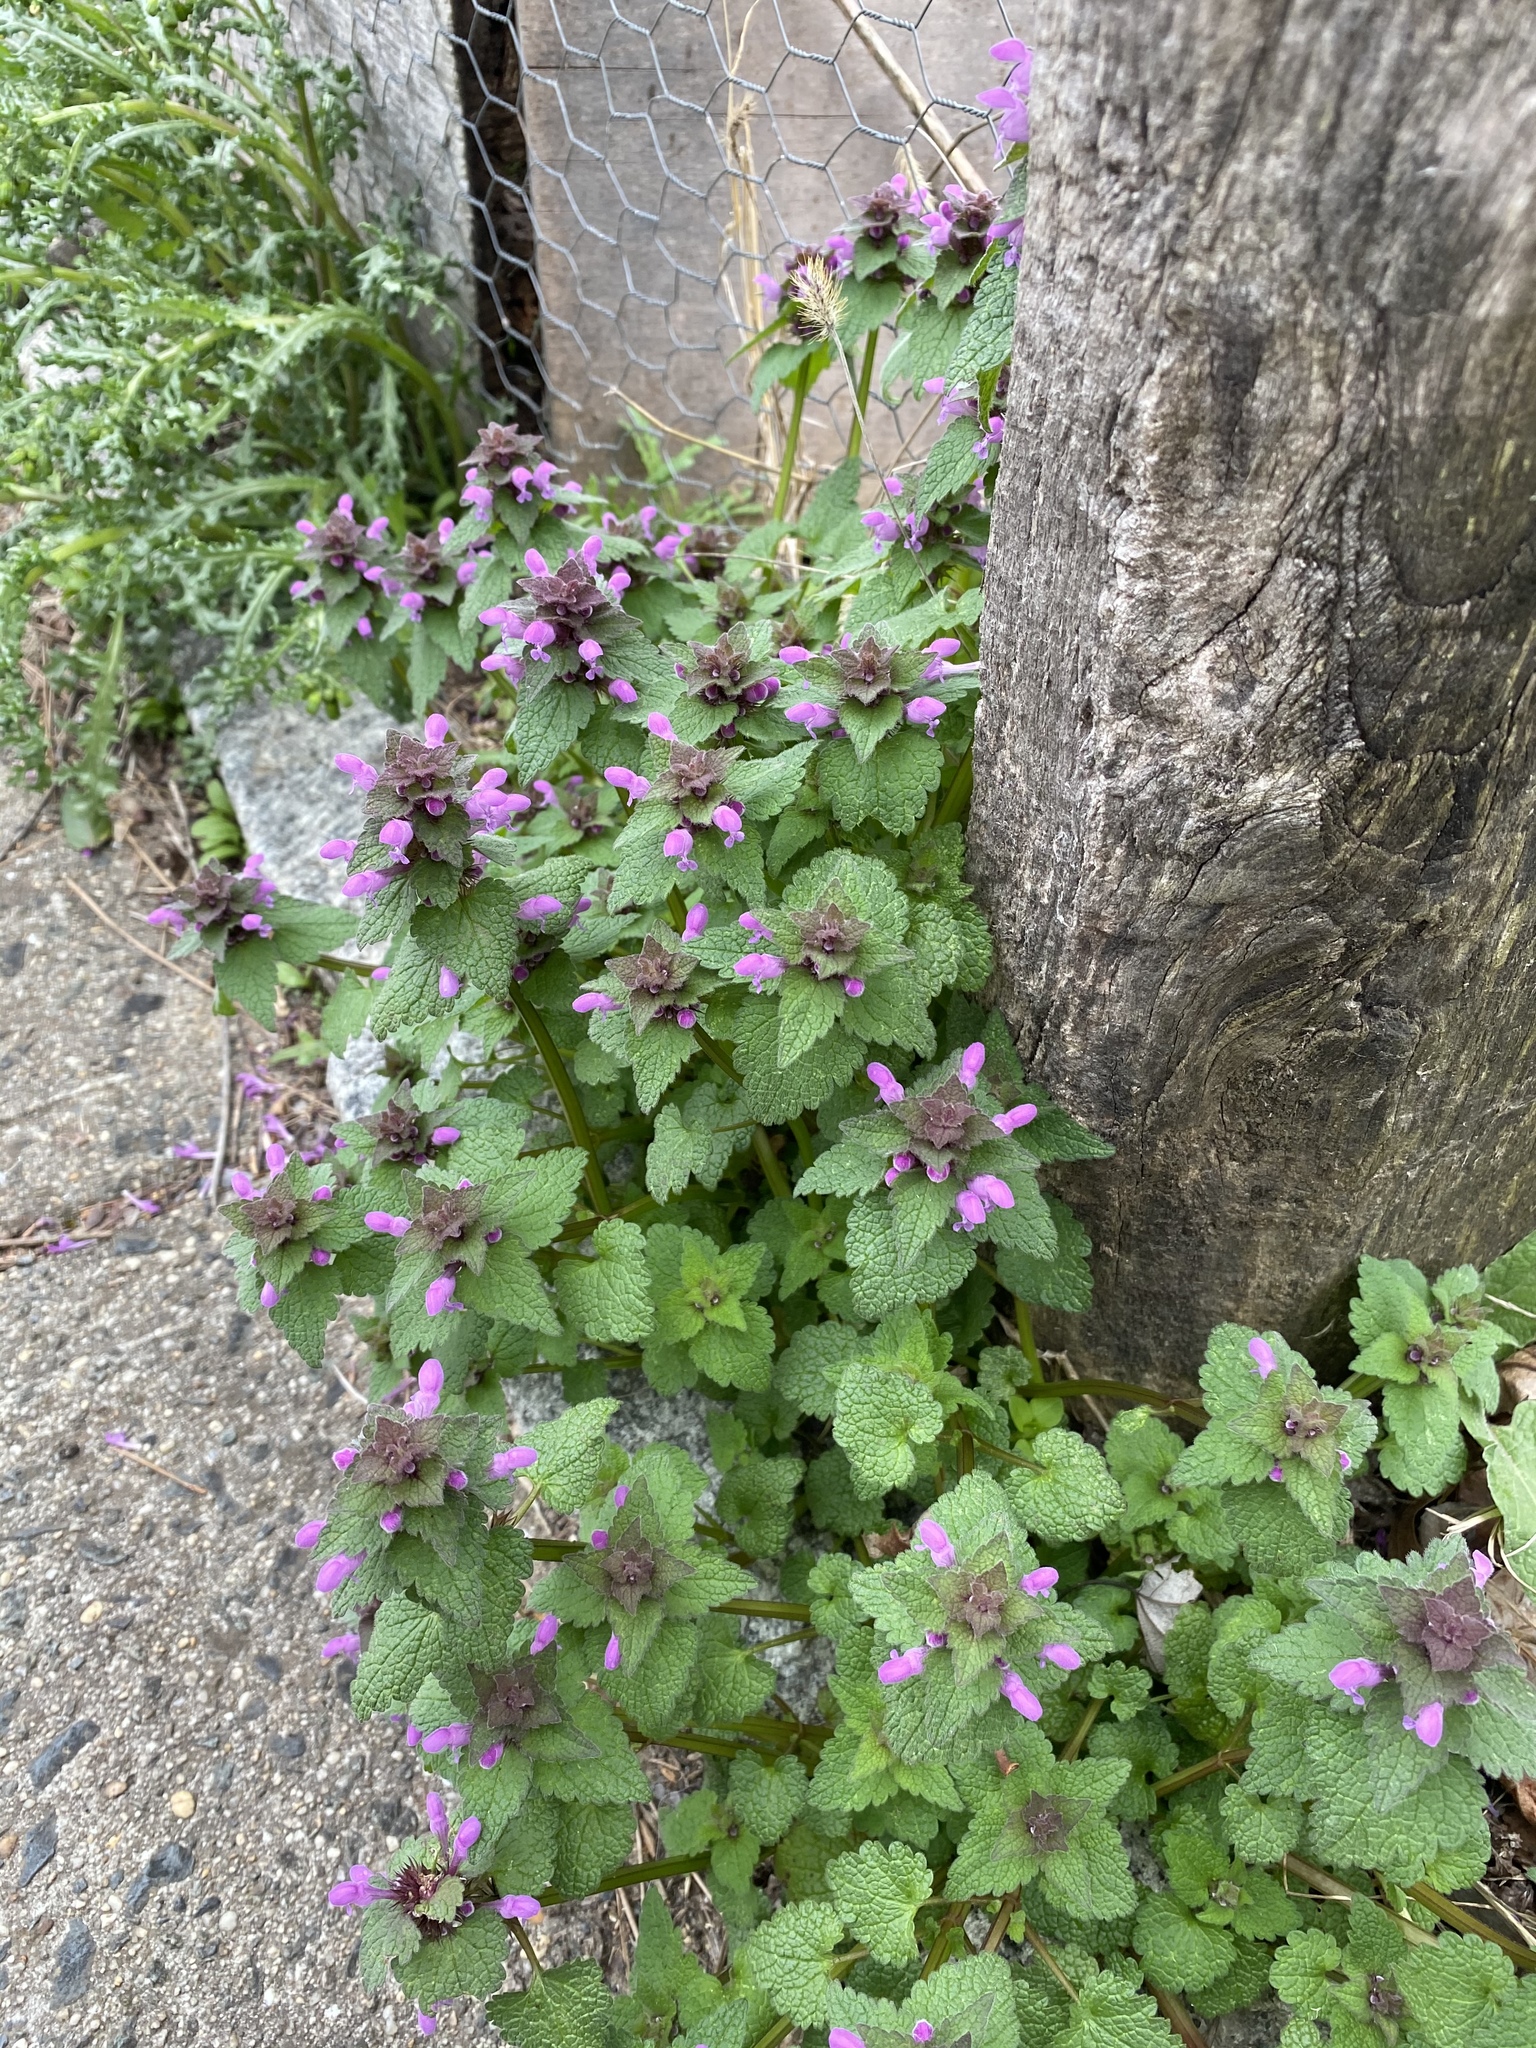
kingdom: Plantae
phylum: Tracheophyta
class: Magnoliopsida
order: Lamiales
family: Lamiaceae
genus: Lamium
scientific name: Lamium purpureum
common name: Red dead-nettle
